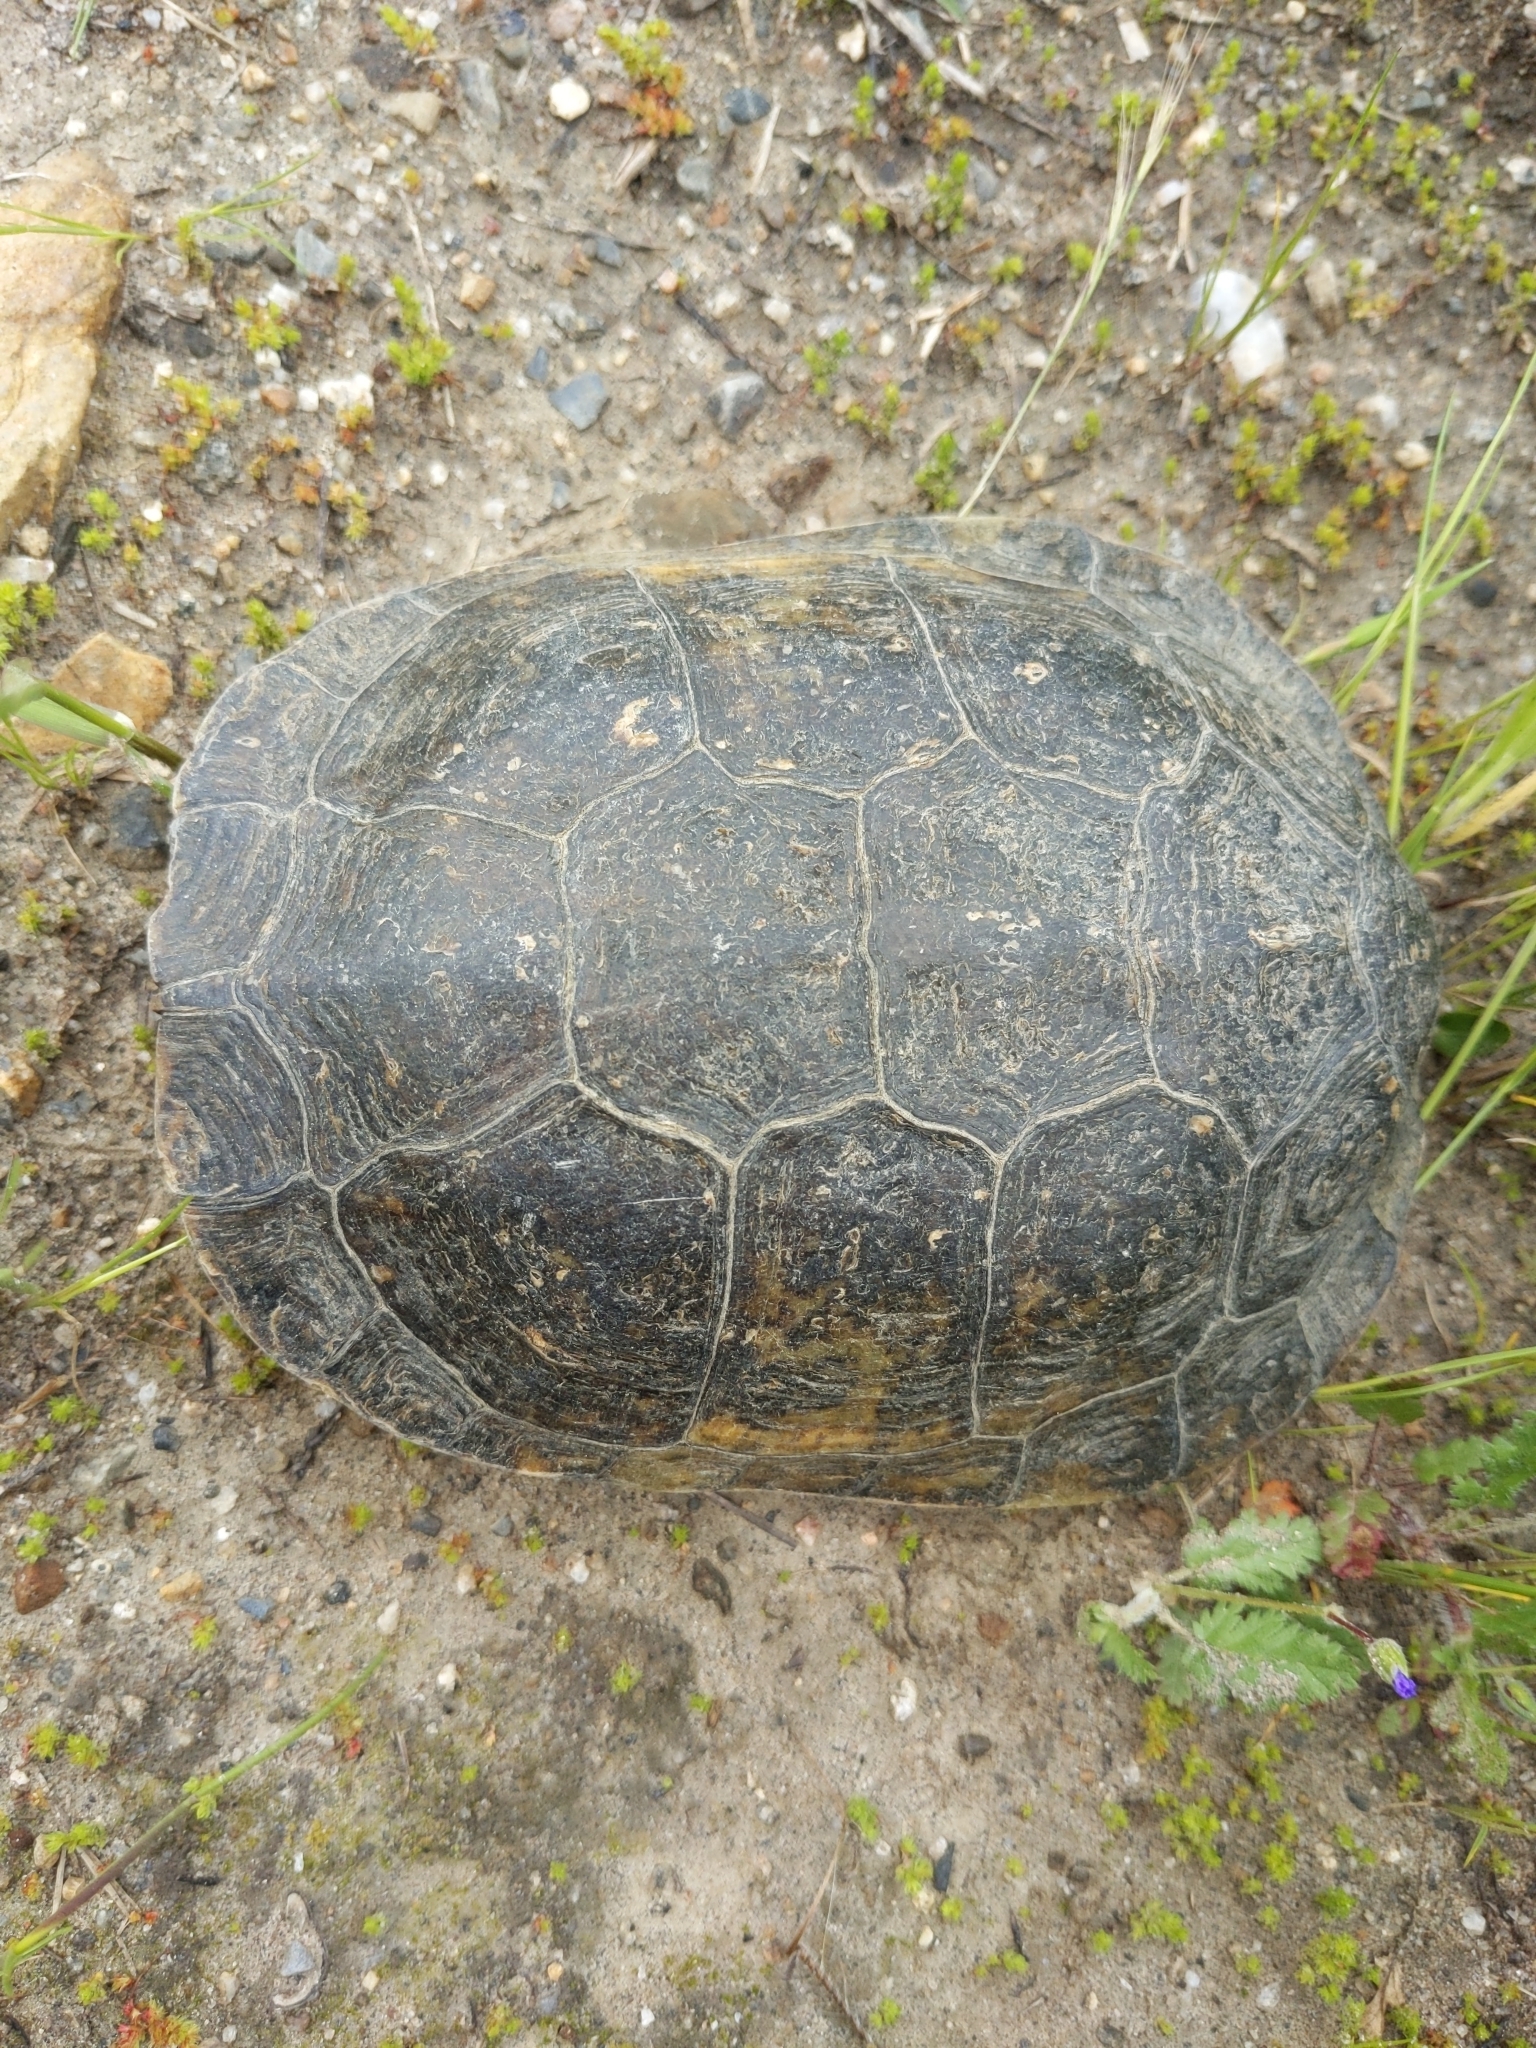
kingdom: Animalia
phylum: Chordata
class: Testudines
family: Emydidae
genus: Actinemys
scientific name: Actinemys marmorata
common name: Western pond turtle
